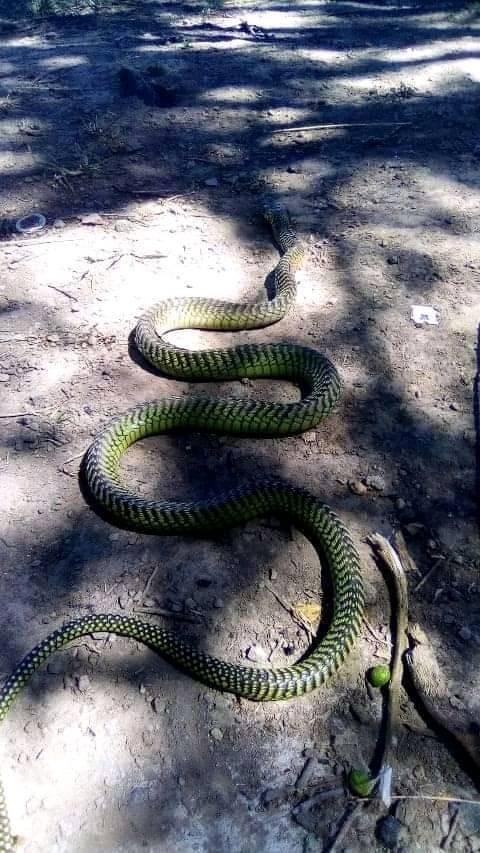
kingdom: Animalia
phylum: Chordata
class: Squamata
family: Colubridae
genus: Dispholidus
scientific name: Dispholidus typus
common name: Boomslang
